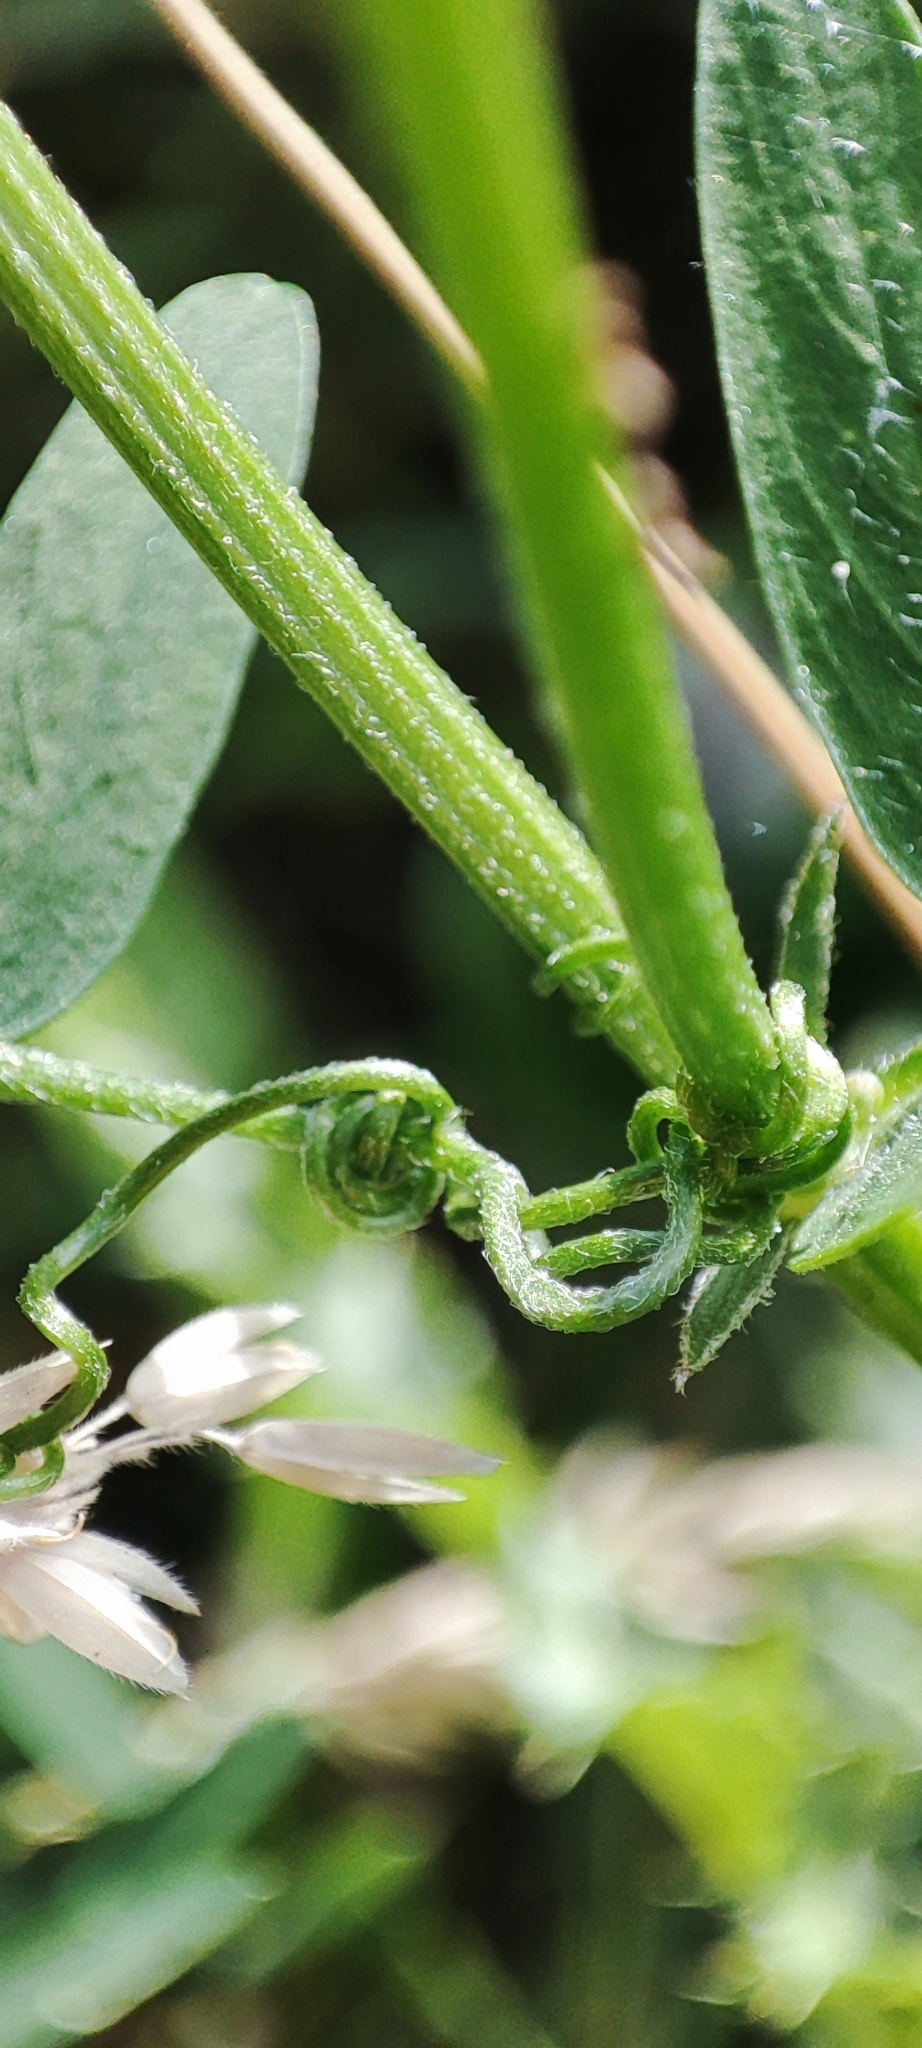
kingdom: Plantae
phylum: Tracheophyta
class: Magnoliopsida
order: Fabales
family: Fabaceae
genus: Vicia
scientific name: Vicia cracca
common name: Bird vetch
